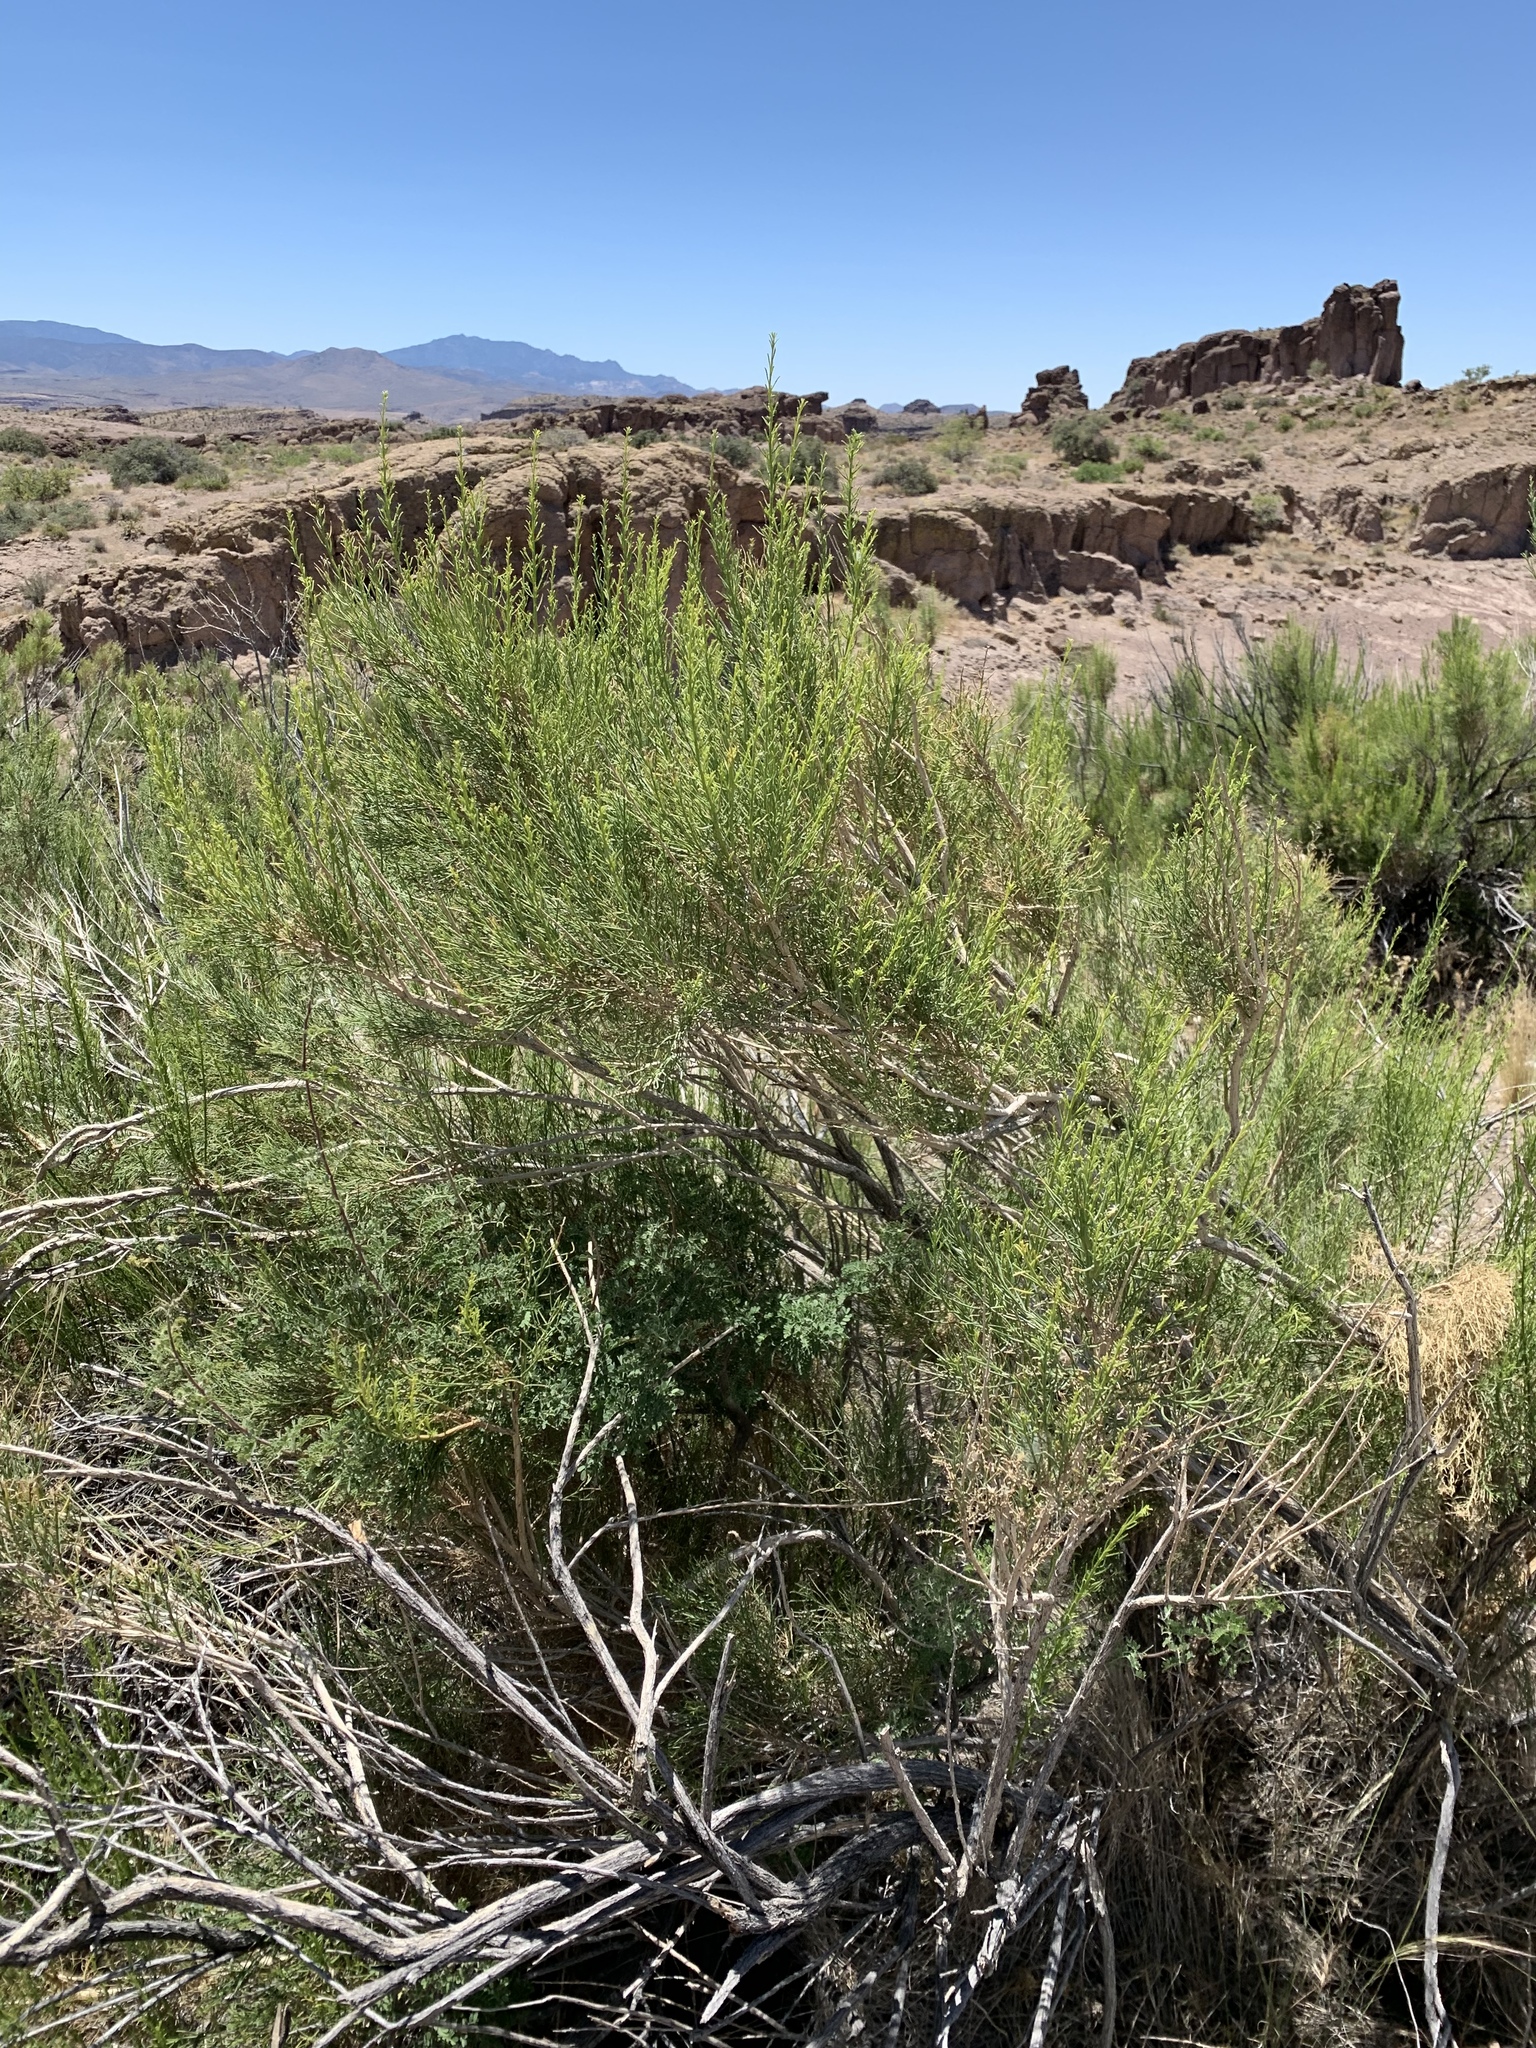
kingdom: Plantae
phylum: Tracheophyta
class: Magnoliopsida
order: Asterales
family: Asteraceae
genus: Baccharis
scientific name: Baccharis sarothroides
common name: Desert-broom
